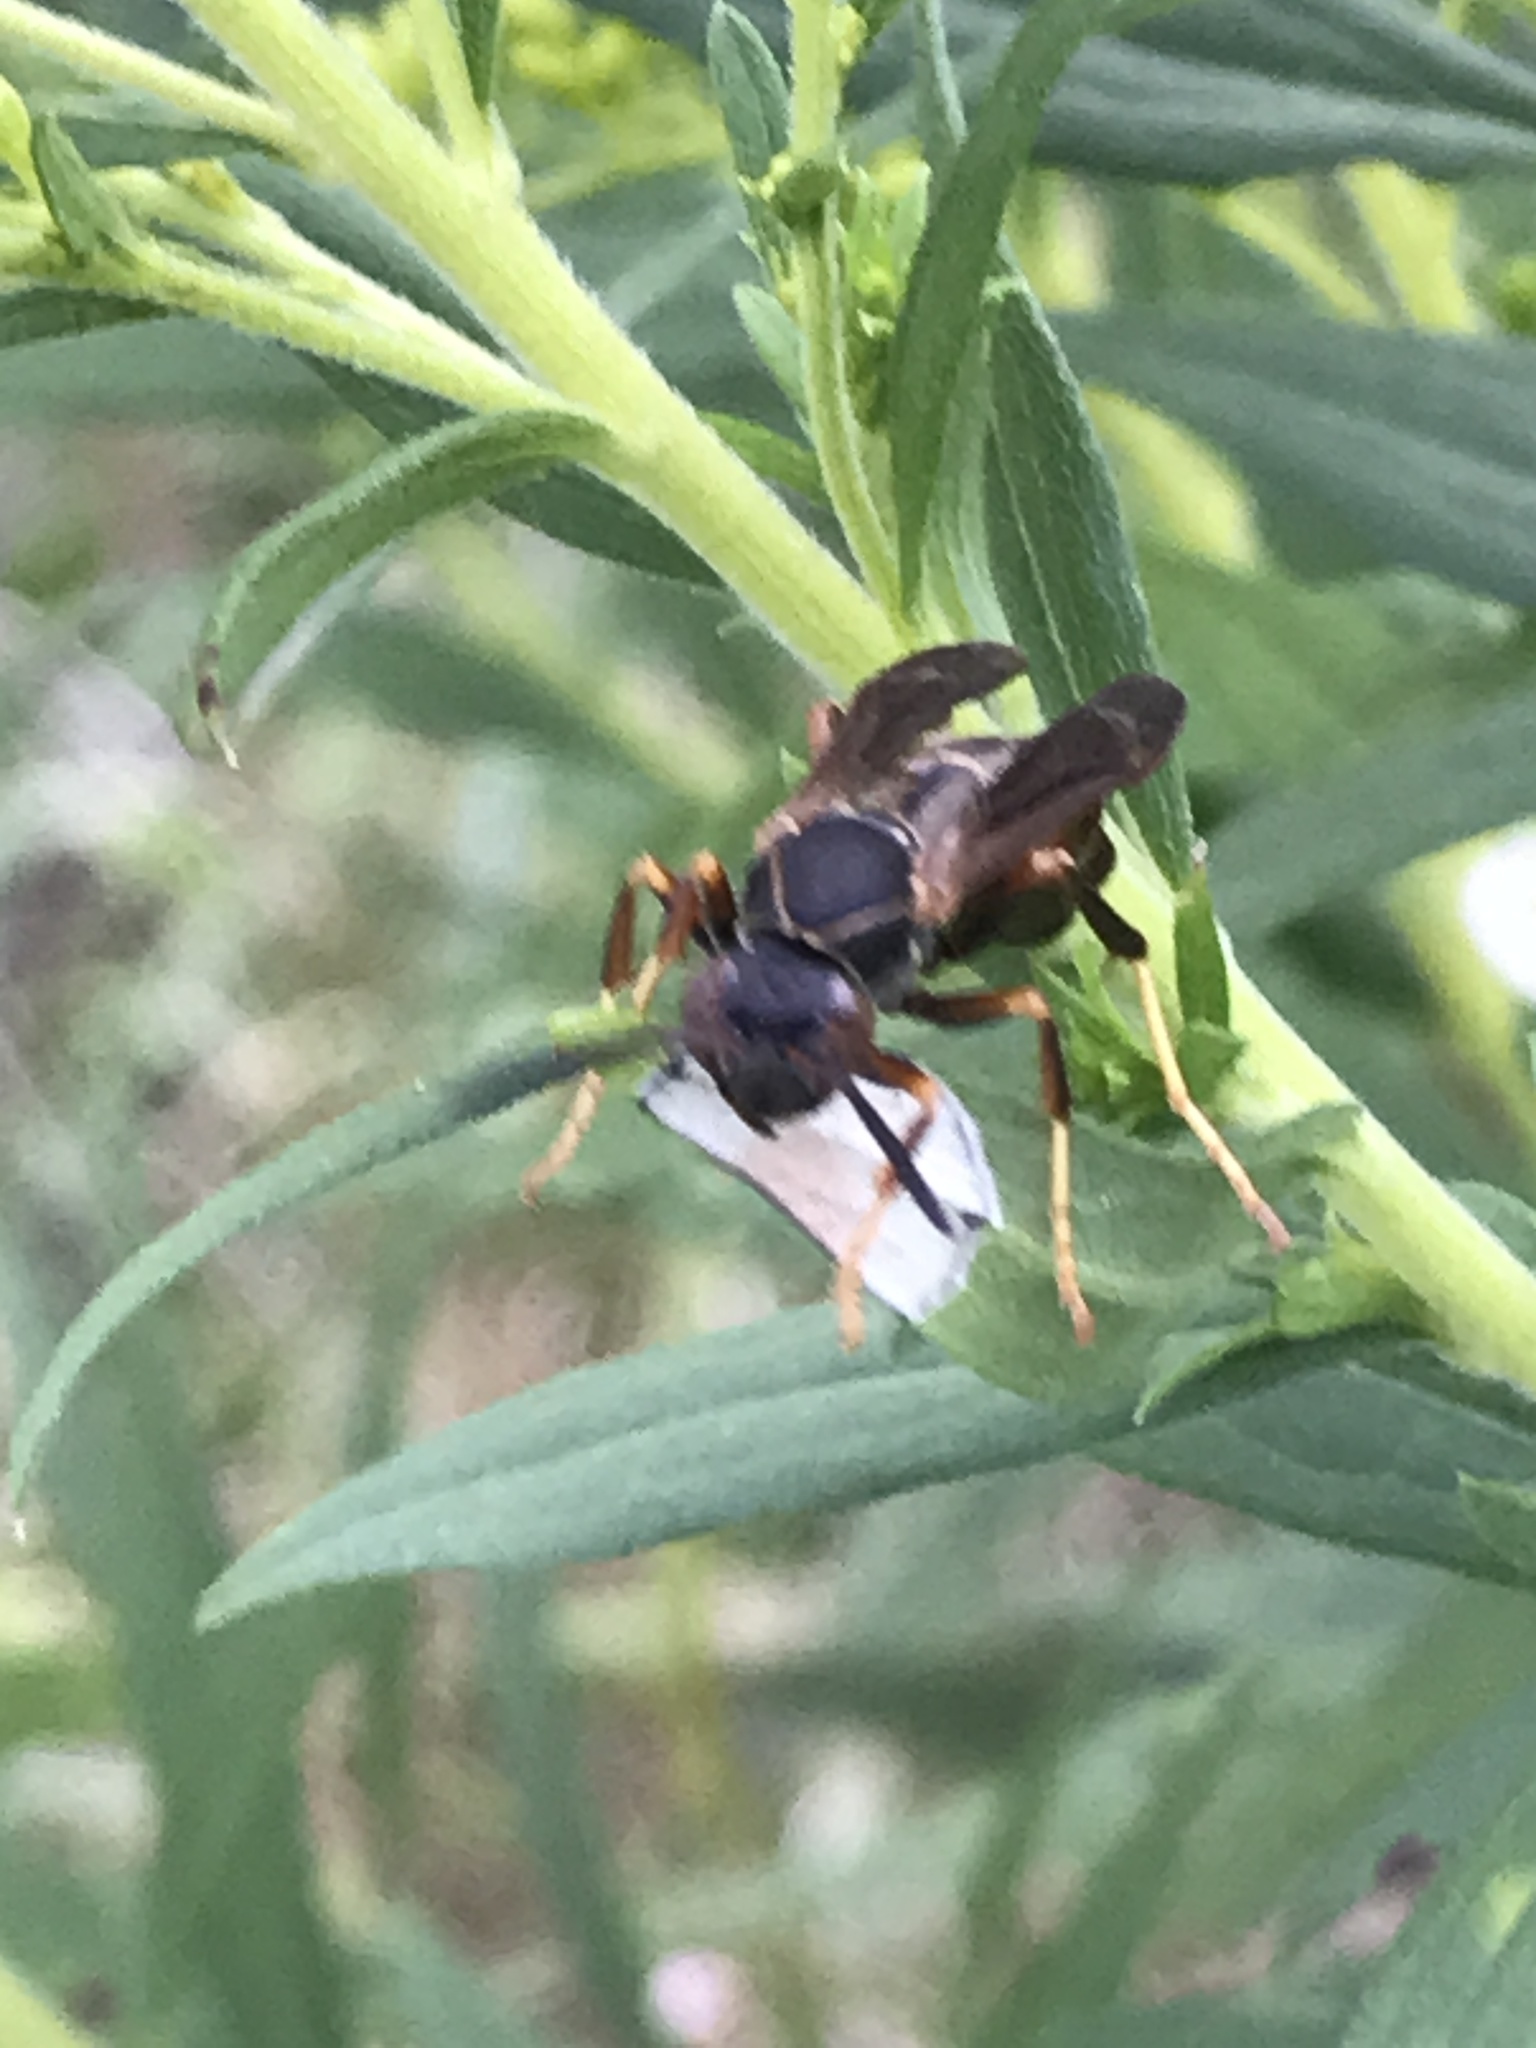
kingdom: Animalia
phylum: Arthropoda
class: Insecta
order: Hymenoptera
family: Eumenidae
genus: Polistes
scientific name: Polistes fuscatus
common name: Dark paper wasp
